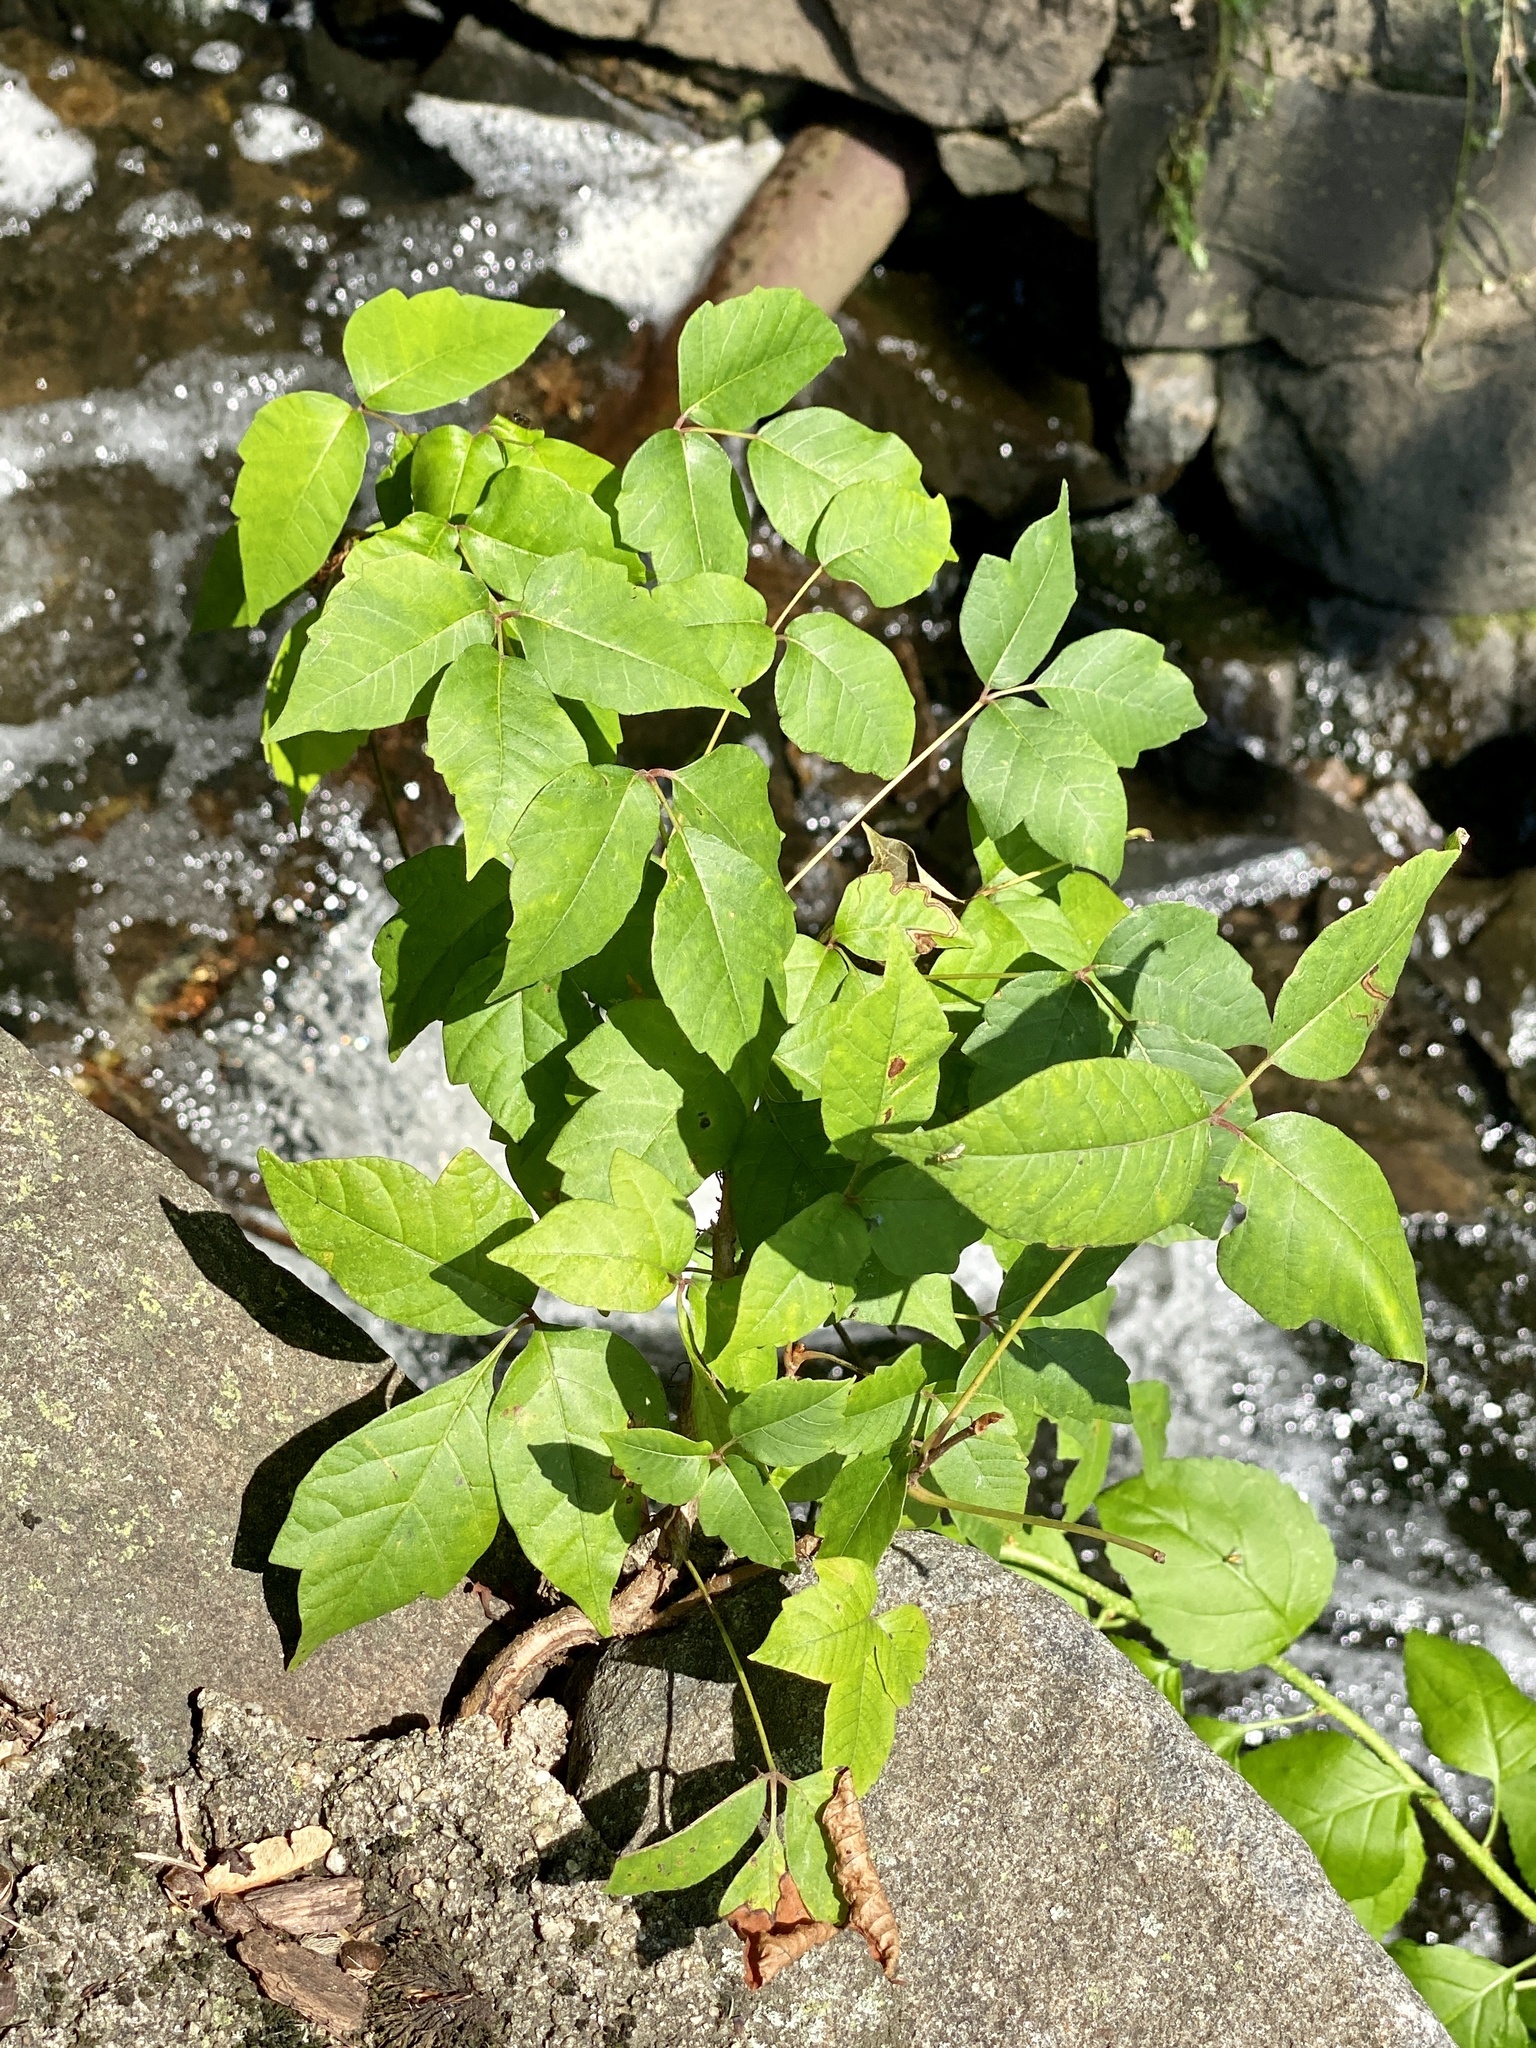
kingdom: Plantae
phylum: Tracheophyta
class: Magnoliopsida
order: Sapindales
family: Anacardiaceae
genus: Toxicodendron
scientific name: Toxicodendron radicans
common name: Poison ivy
